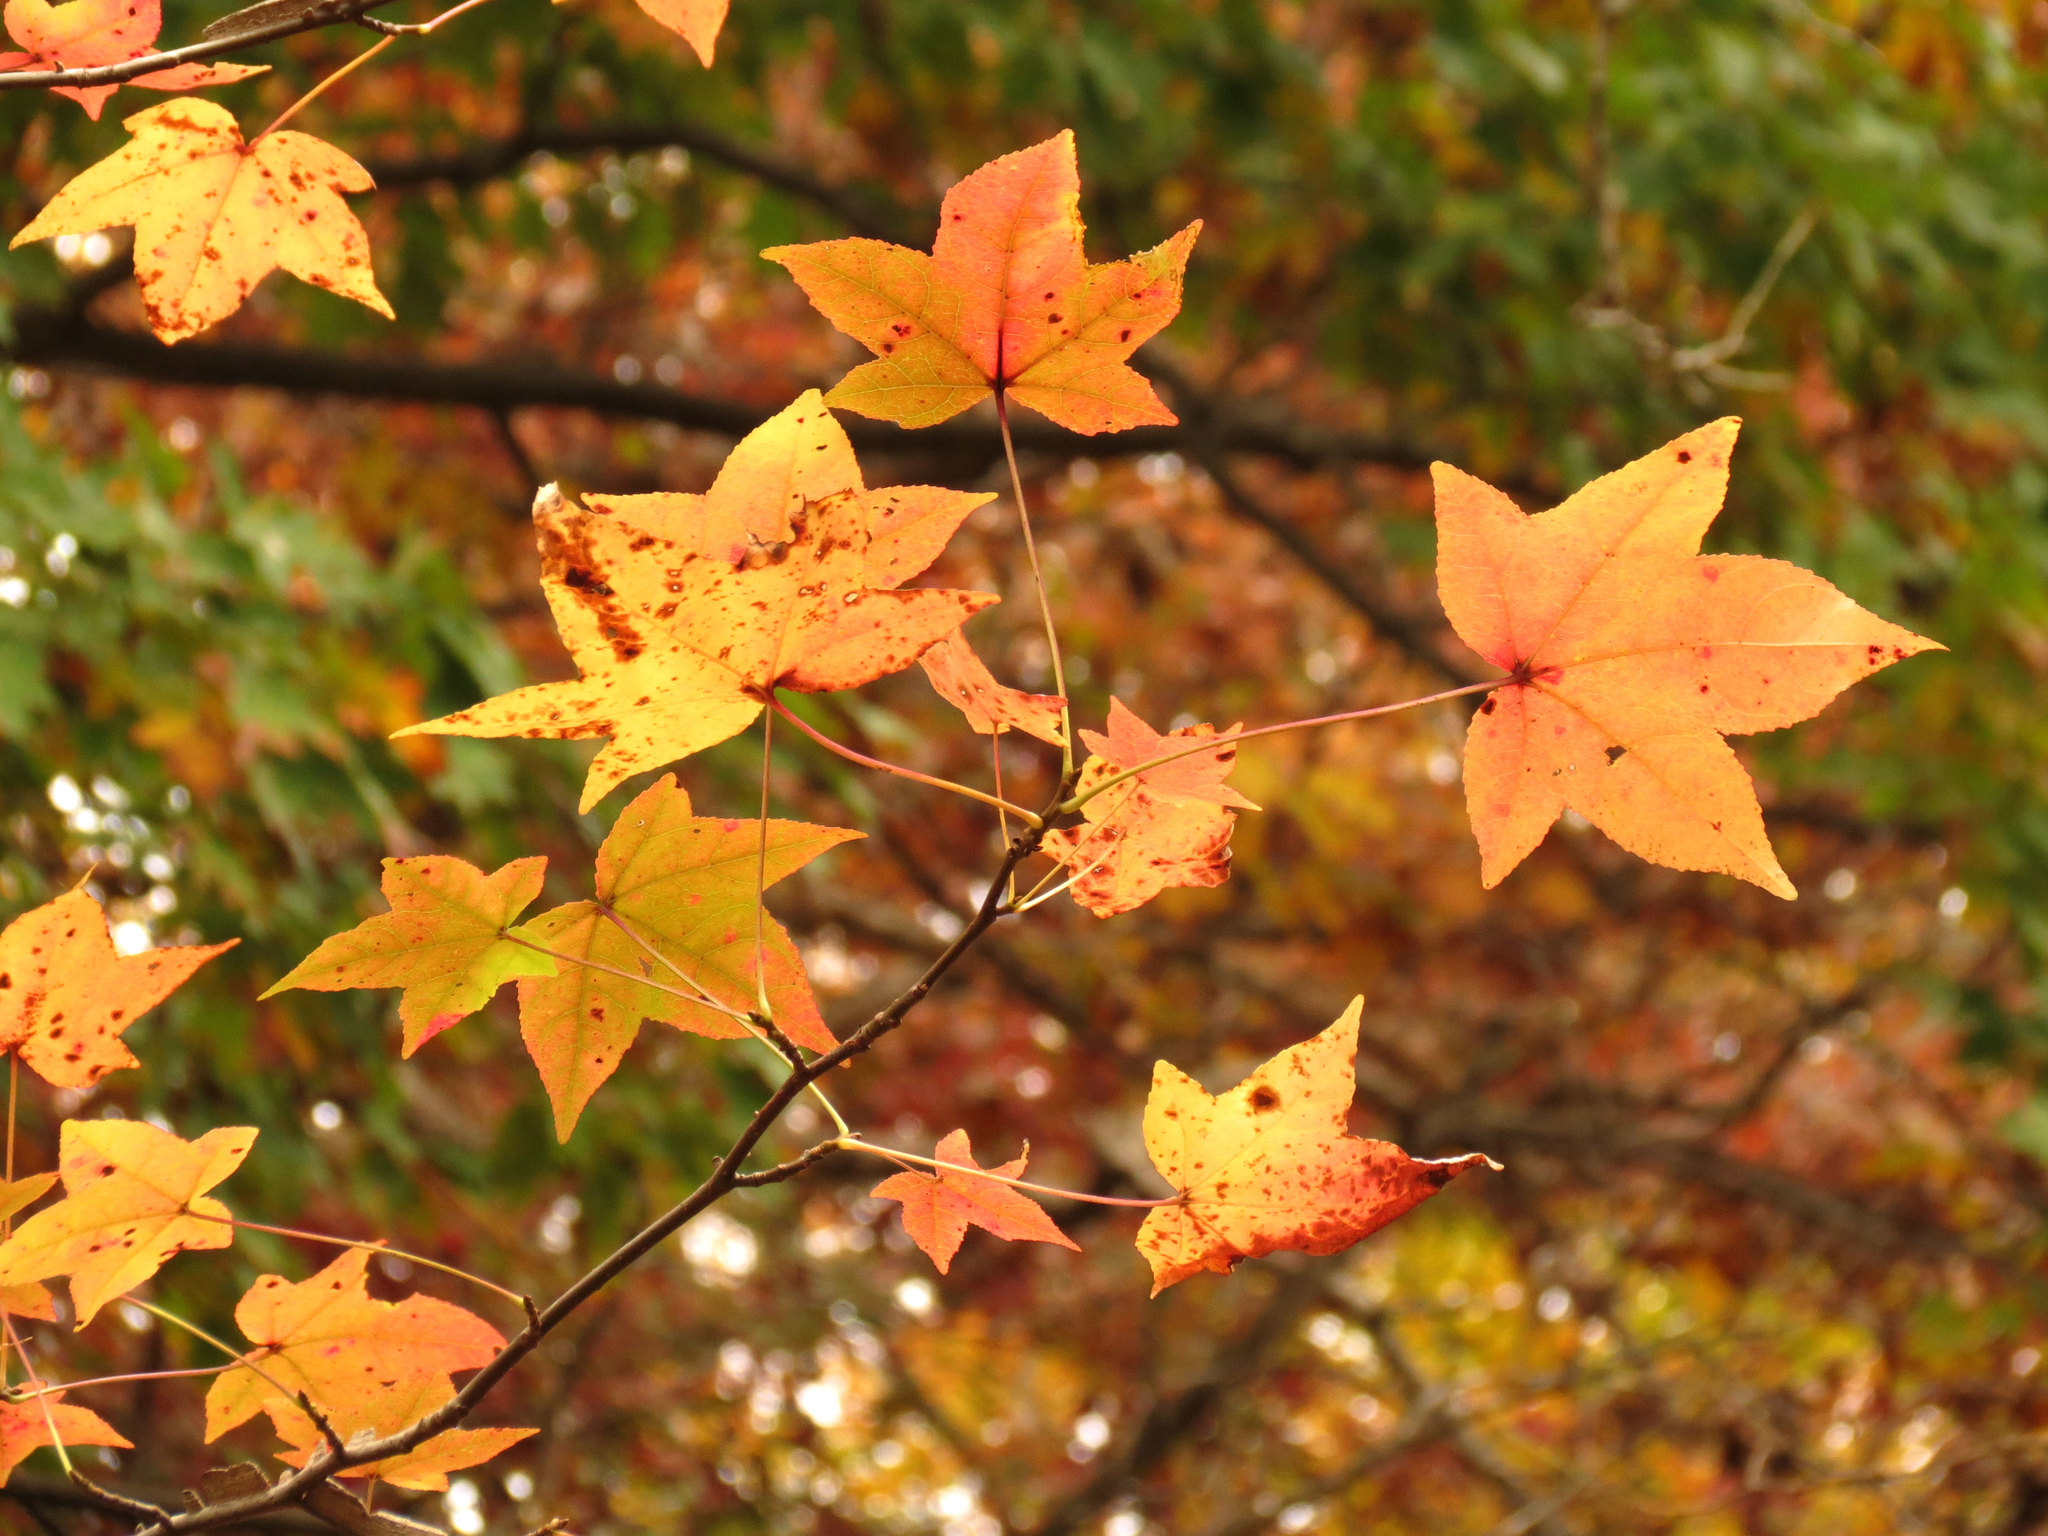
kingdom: Plantae
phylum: Tracheophyta
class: Magnoliopsida
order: Saxifragales
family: Altingiaceae
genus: Liquidambar
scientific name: Liquidambar styraciflua
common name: Sweet gum
